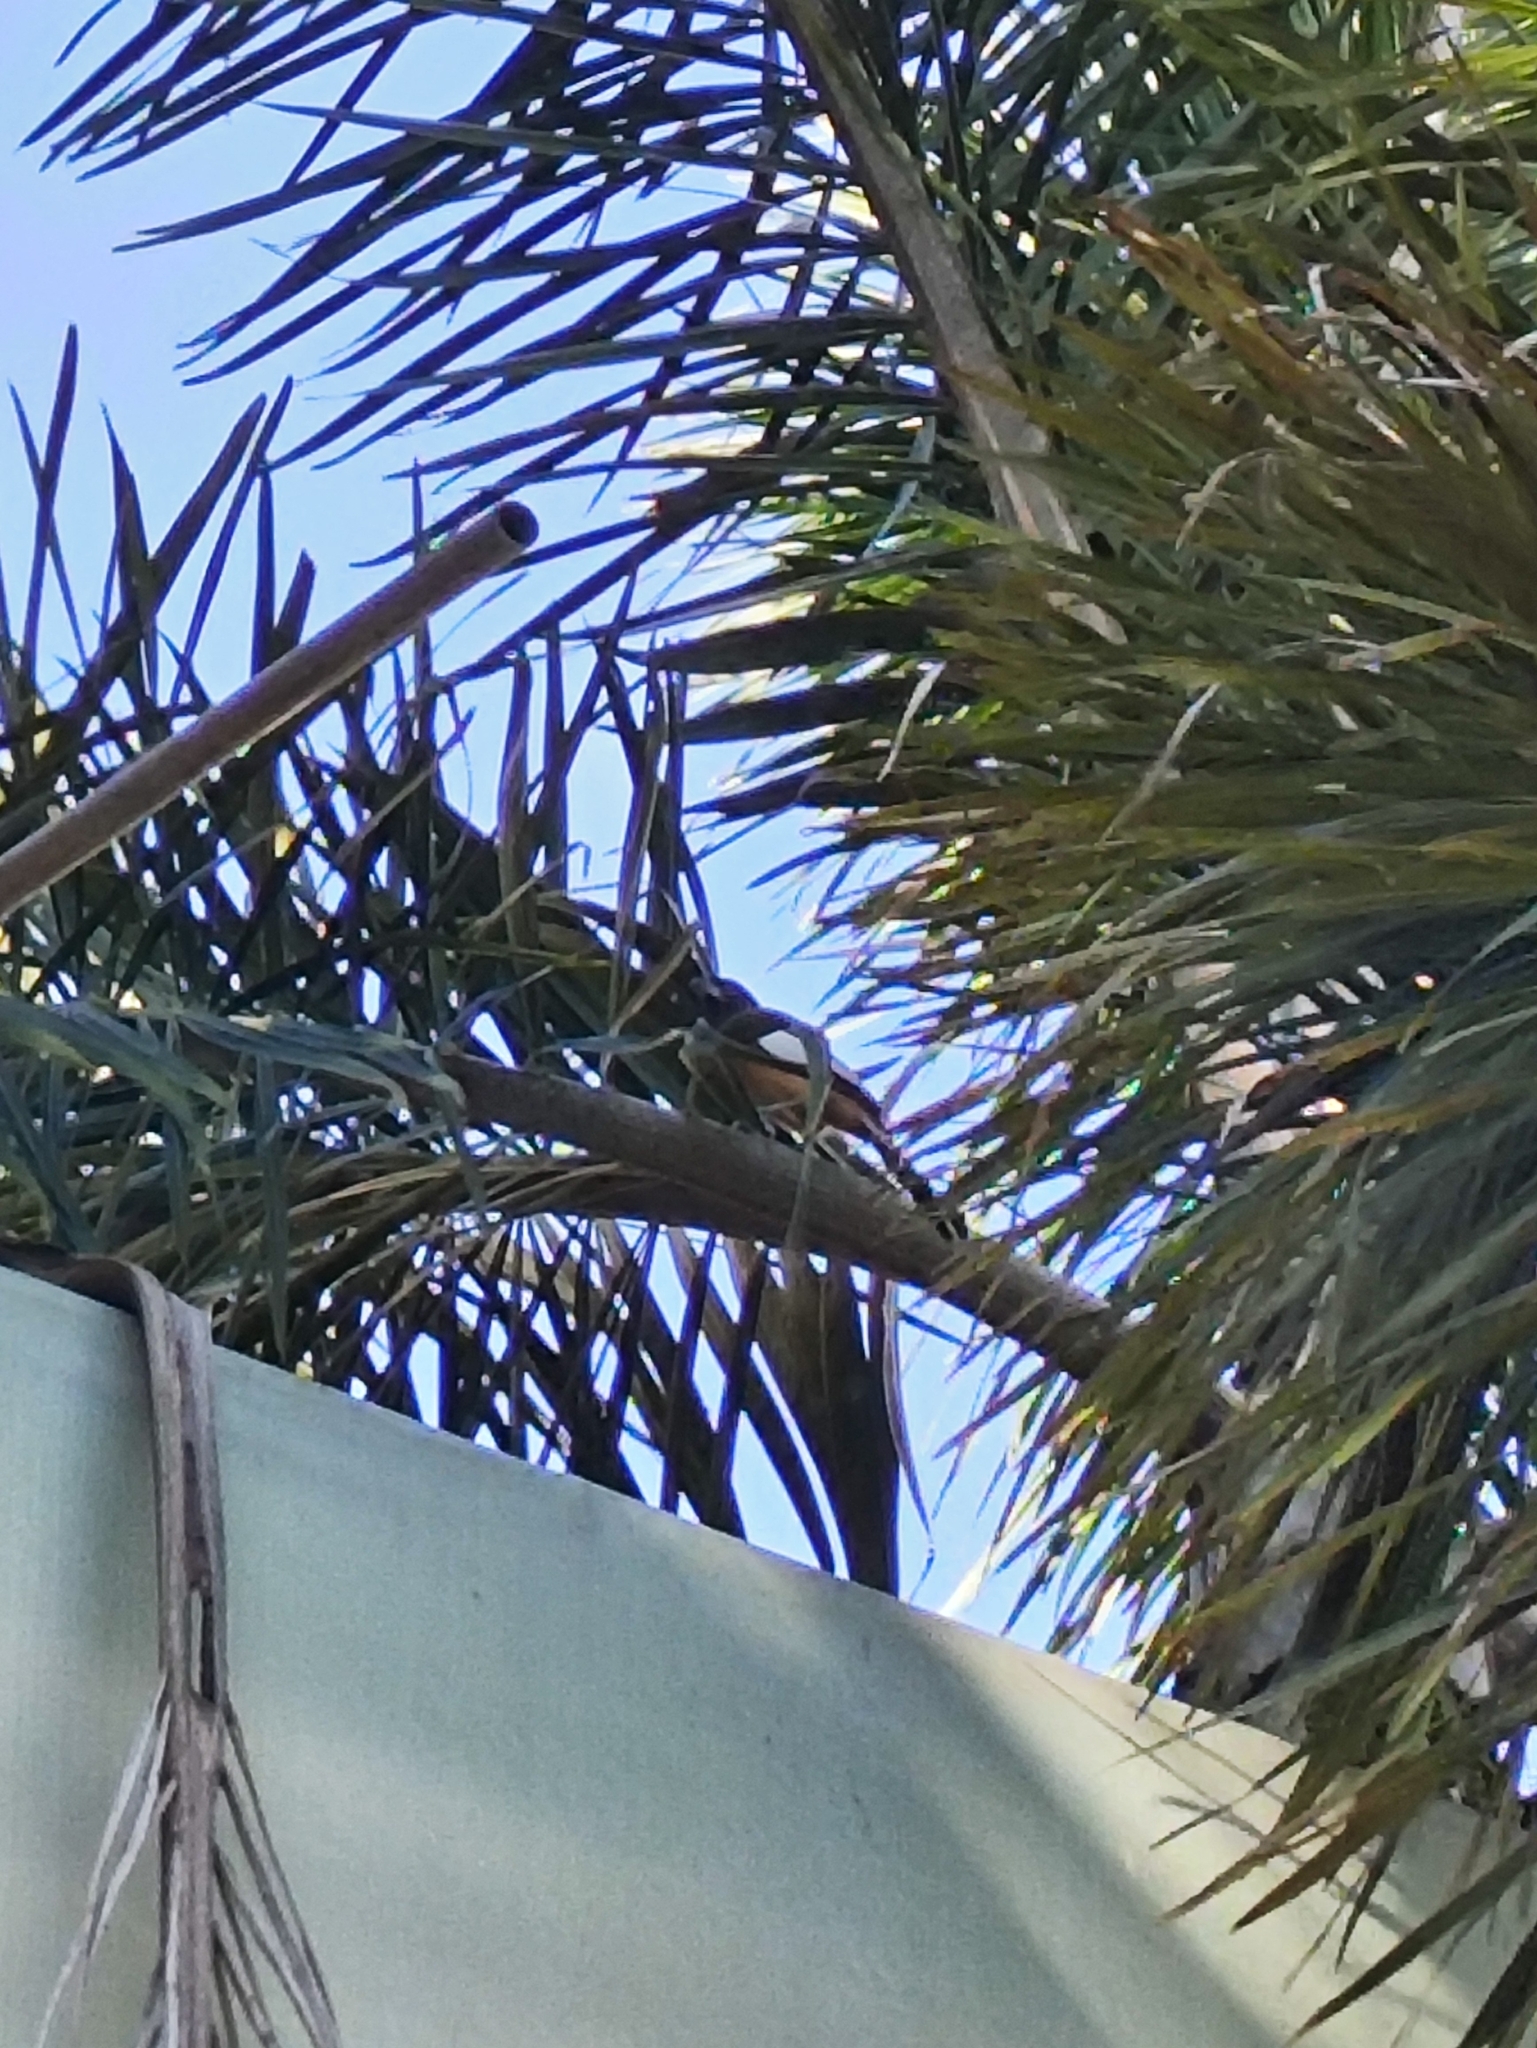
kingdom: Animalia
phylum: Chordata
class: Aves
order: Passeriformes
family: Corvidae
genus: Dendrocitta
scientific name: Dendrocitta vagabunda
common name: Rufous treepie
